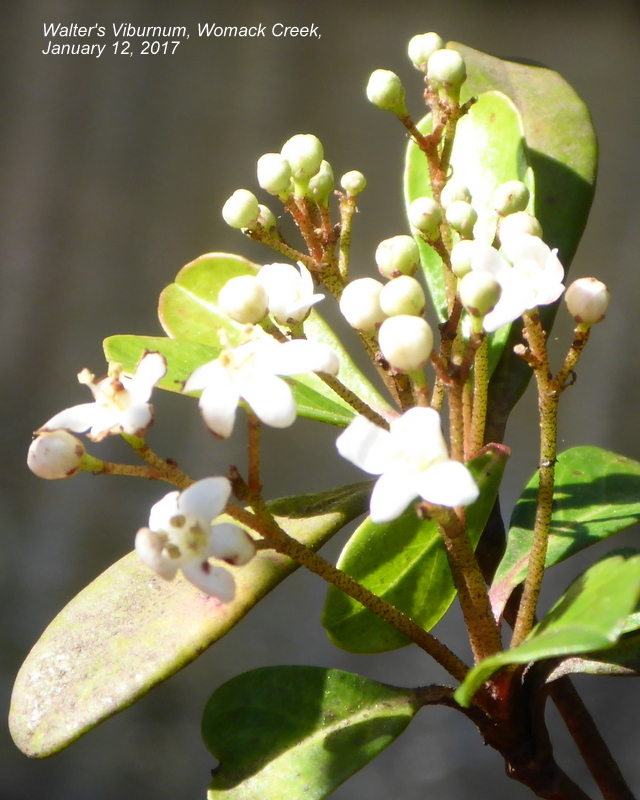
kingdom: Plantae
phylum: Tracheophyta
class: Magnoliopsida
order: Dipsacales
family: Viburnaceae
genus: Viburnum
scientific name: Viburnum obovatum
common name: Walter's viburnum
